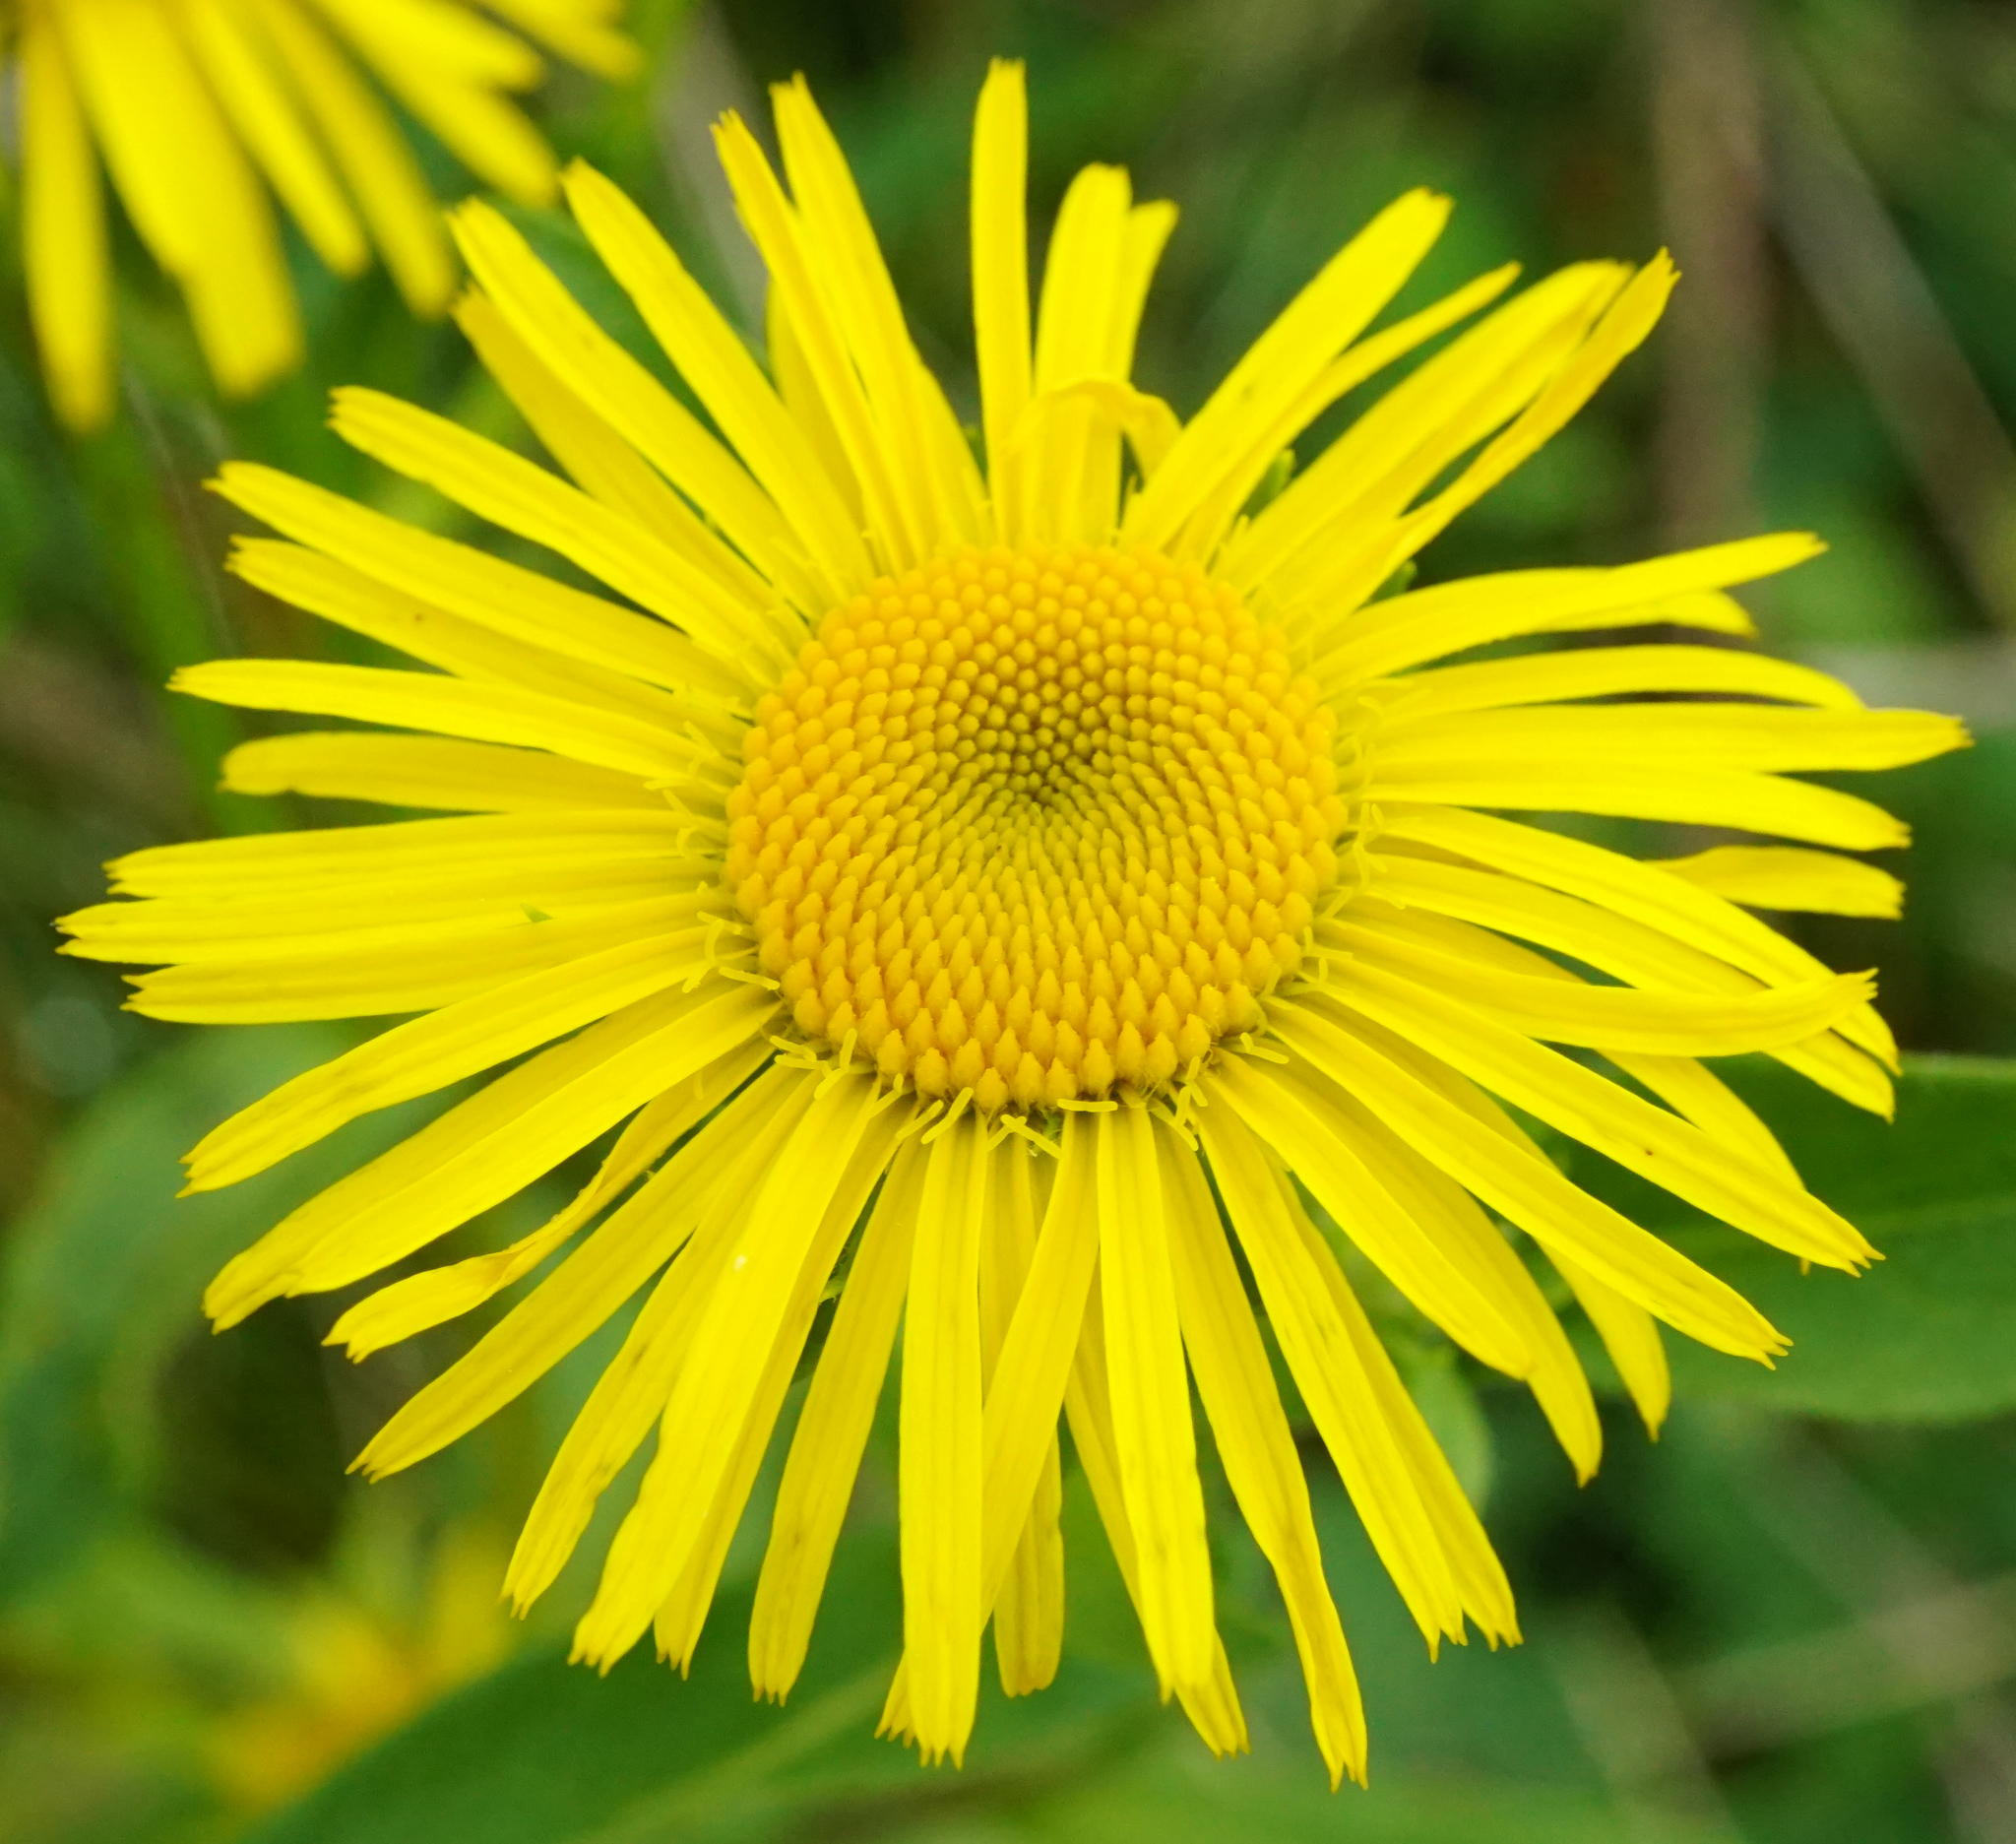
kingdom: Plantae
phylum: Tracheophyta
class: Magnoliopsida
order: Asterales
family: Asteraceae
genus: Pentanema
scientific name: Pentanema britannicum
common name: British elecampane
